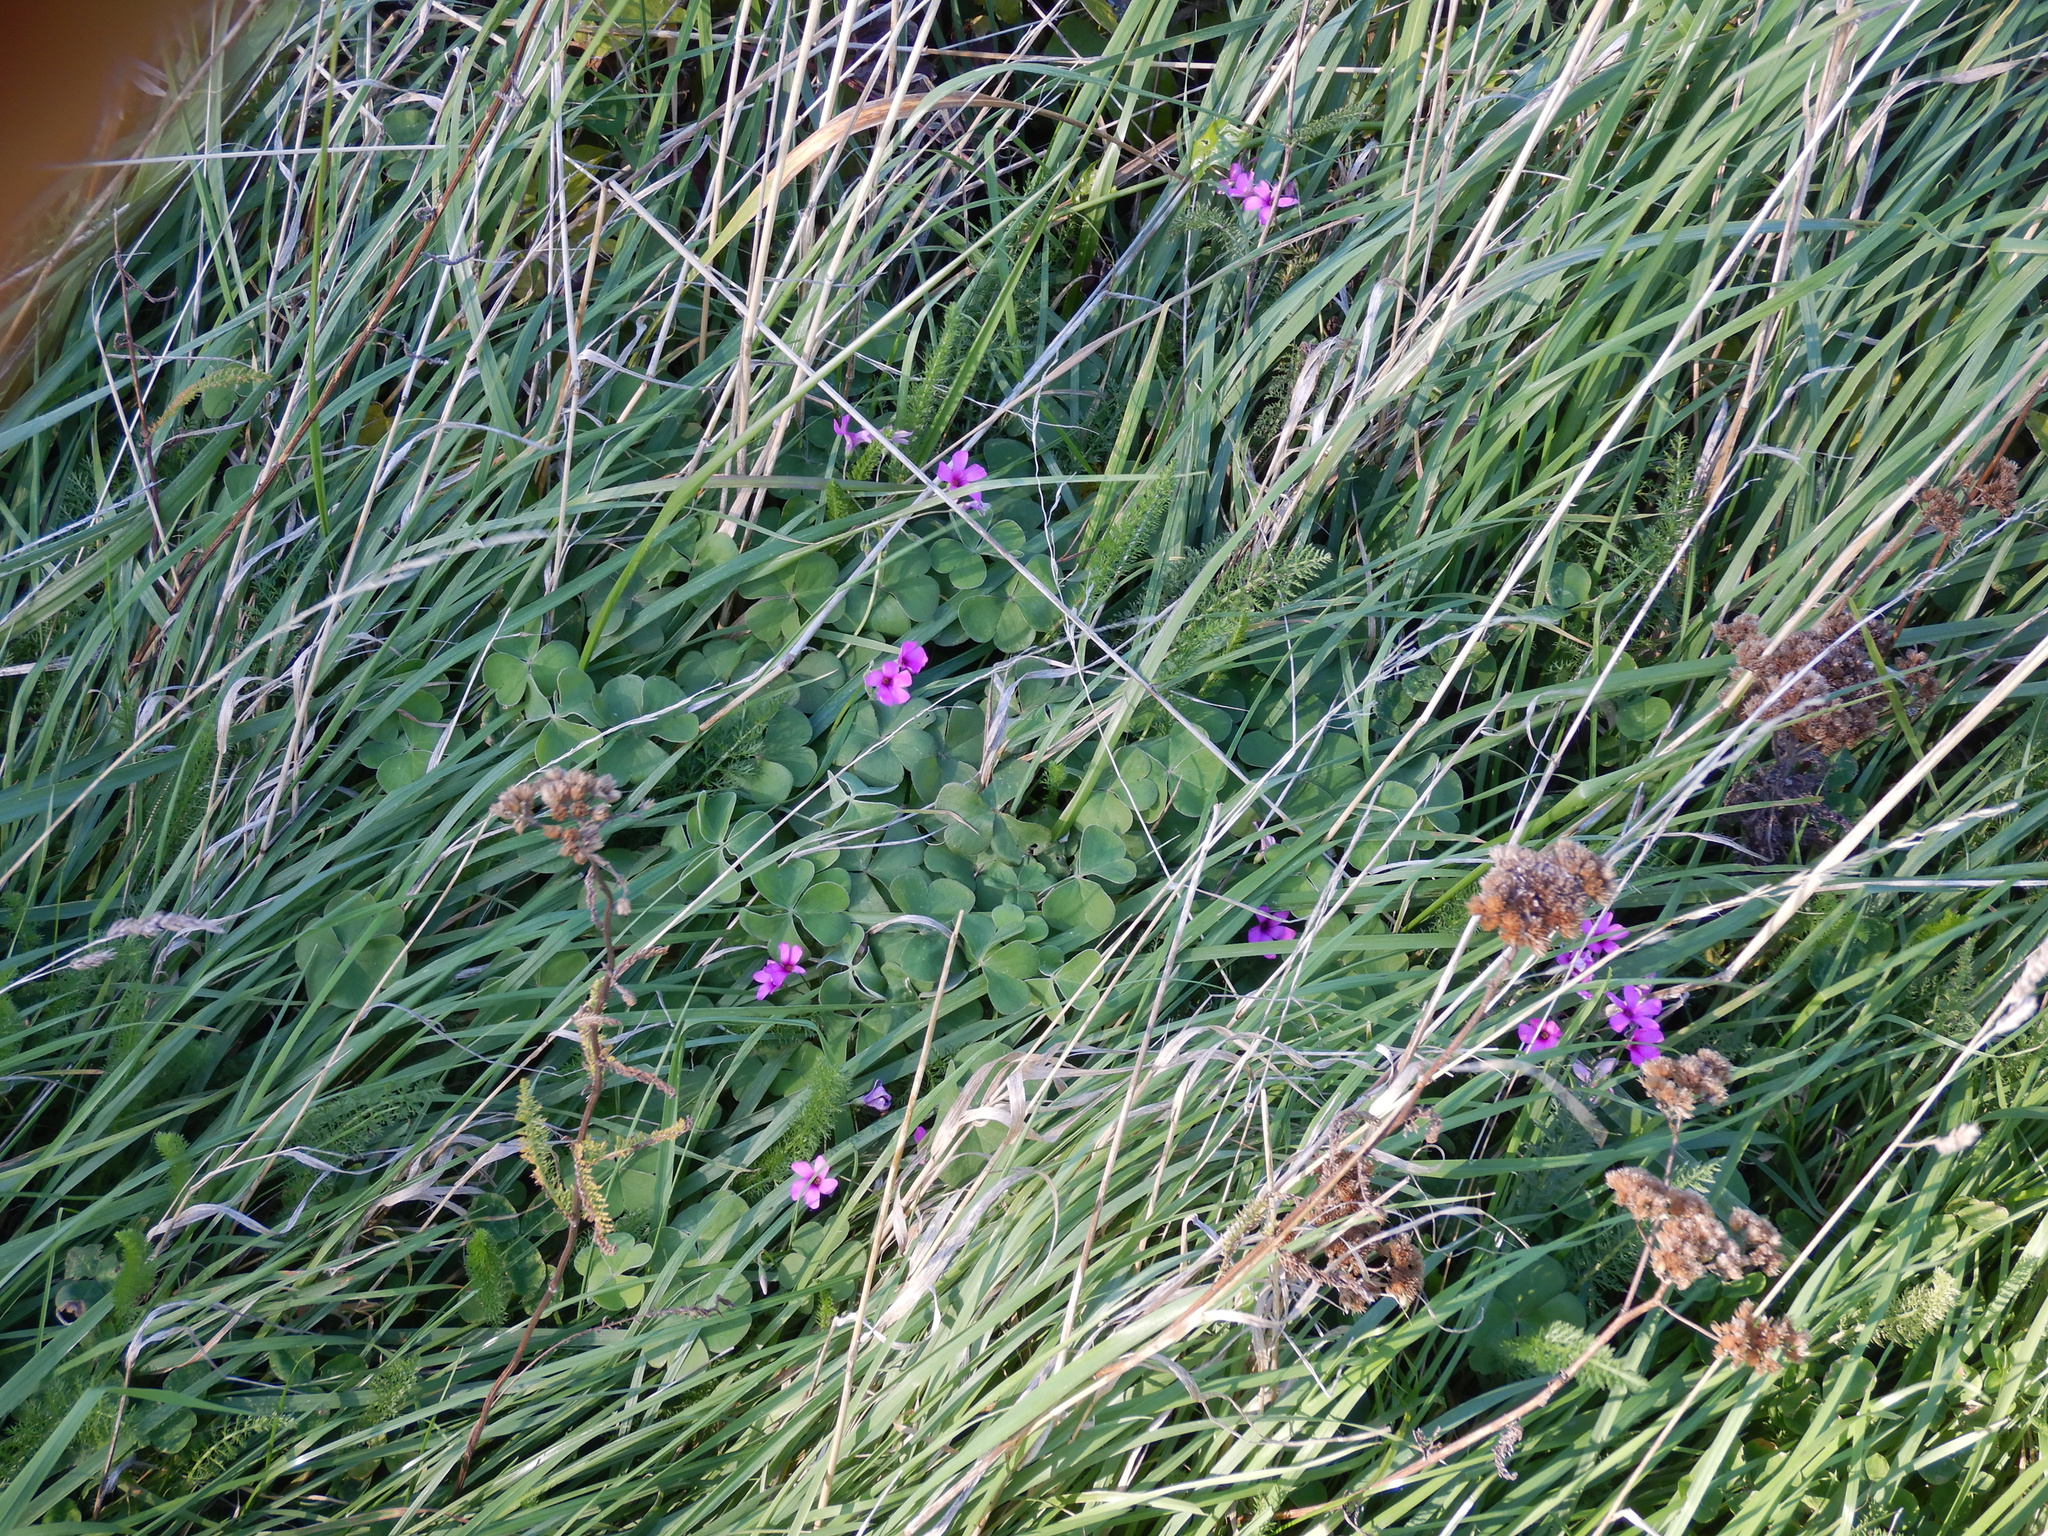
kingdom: Plantae
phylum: Tracheophyta
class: Magnoliopsida
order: Oxalidales
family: Oxalidaceae
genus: Oxalis
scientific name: Oxalis articulata
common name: Pink-sorrel
